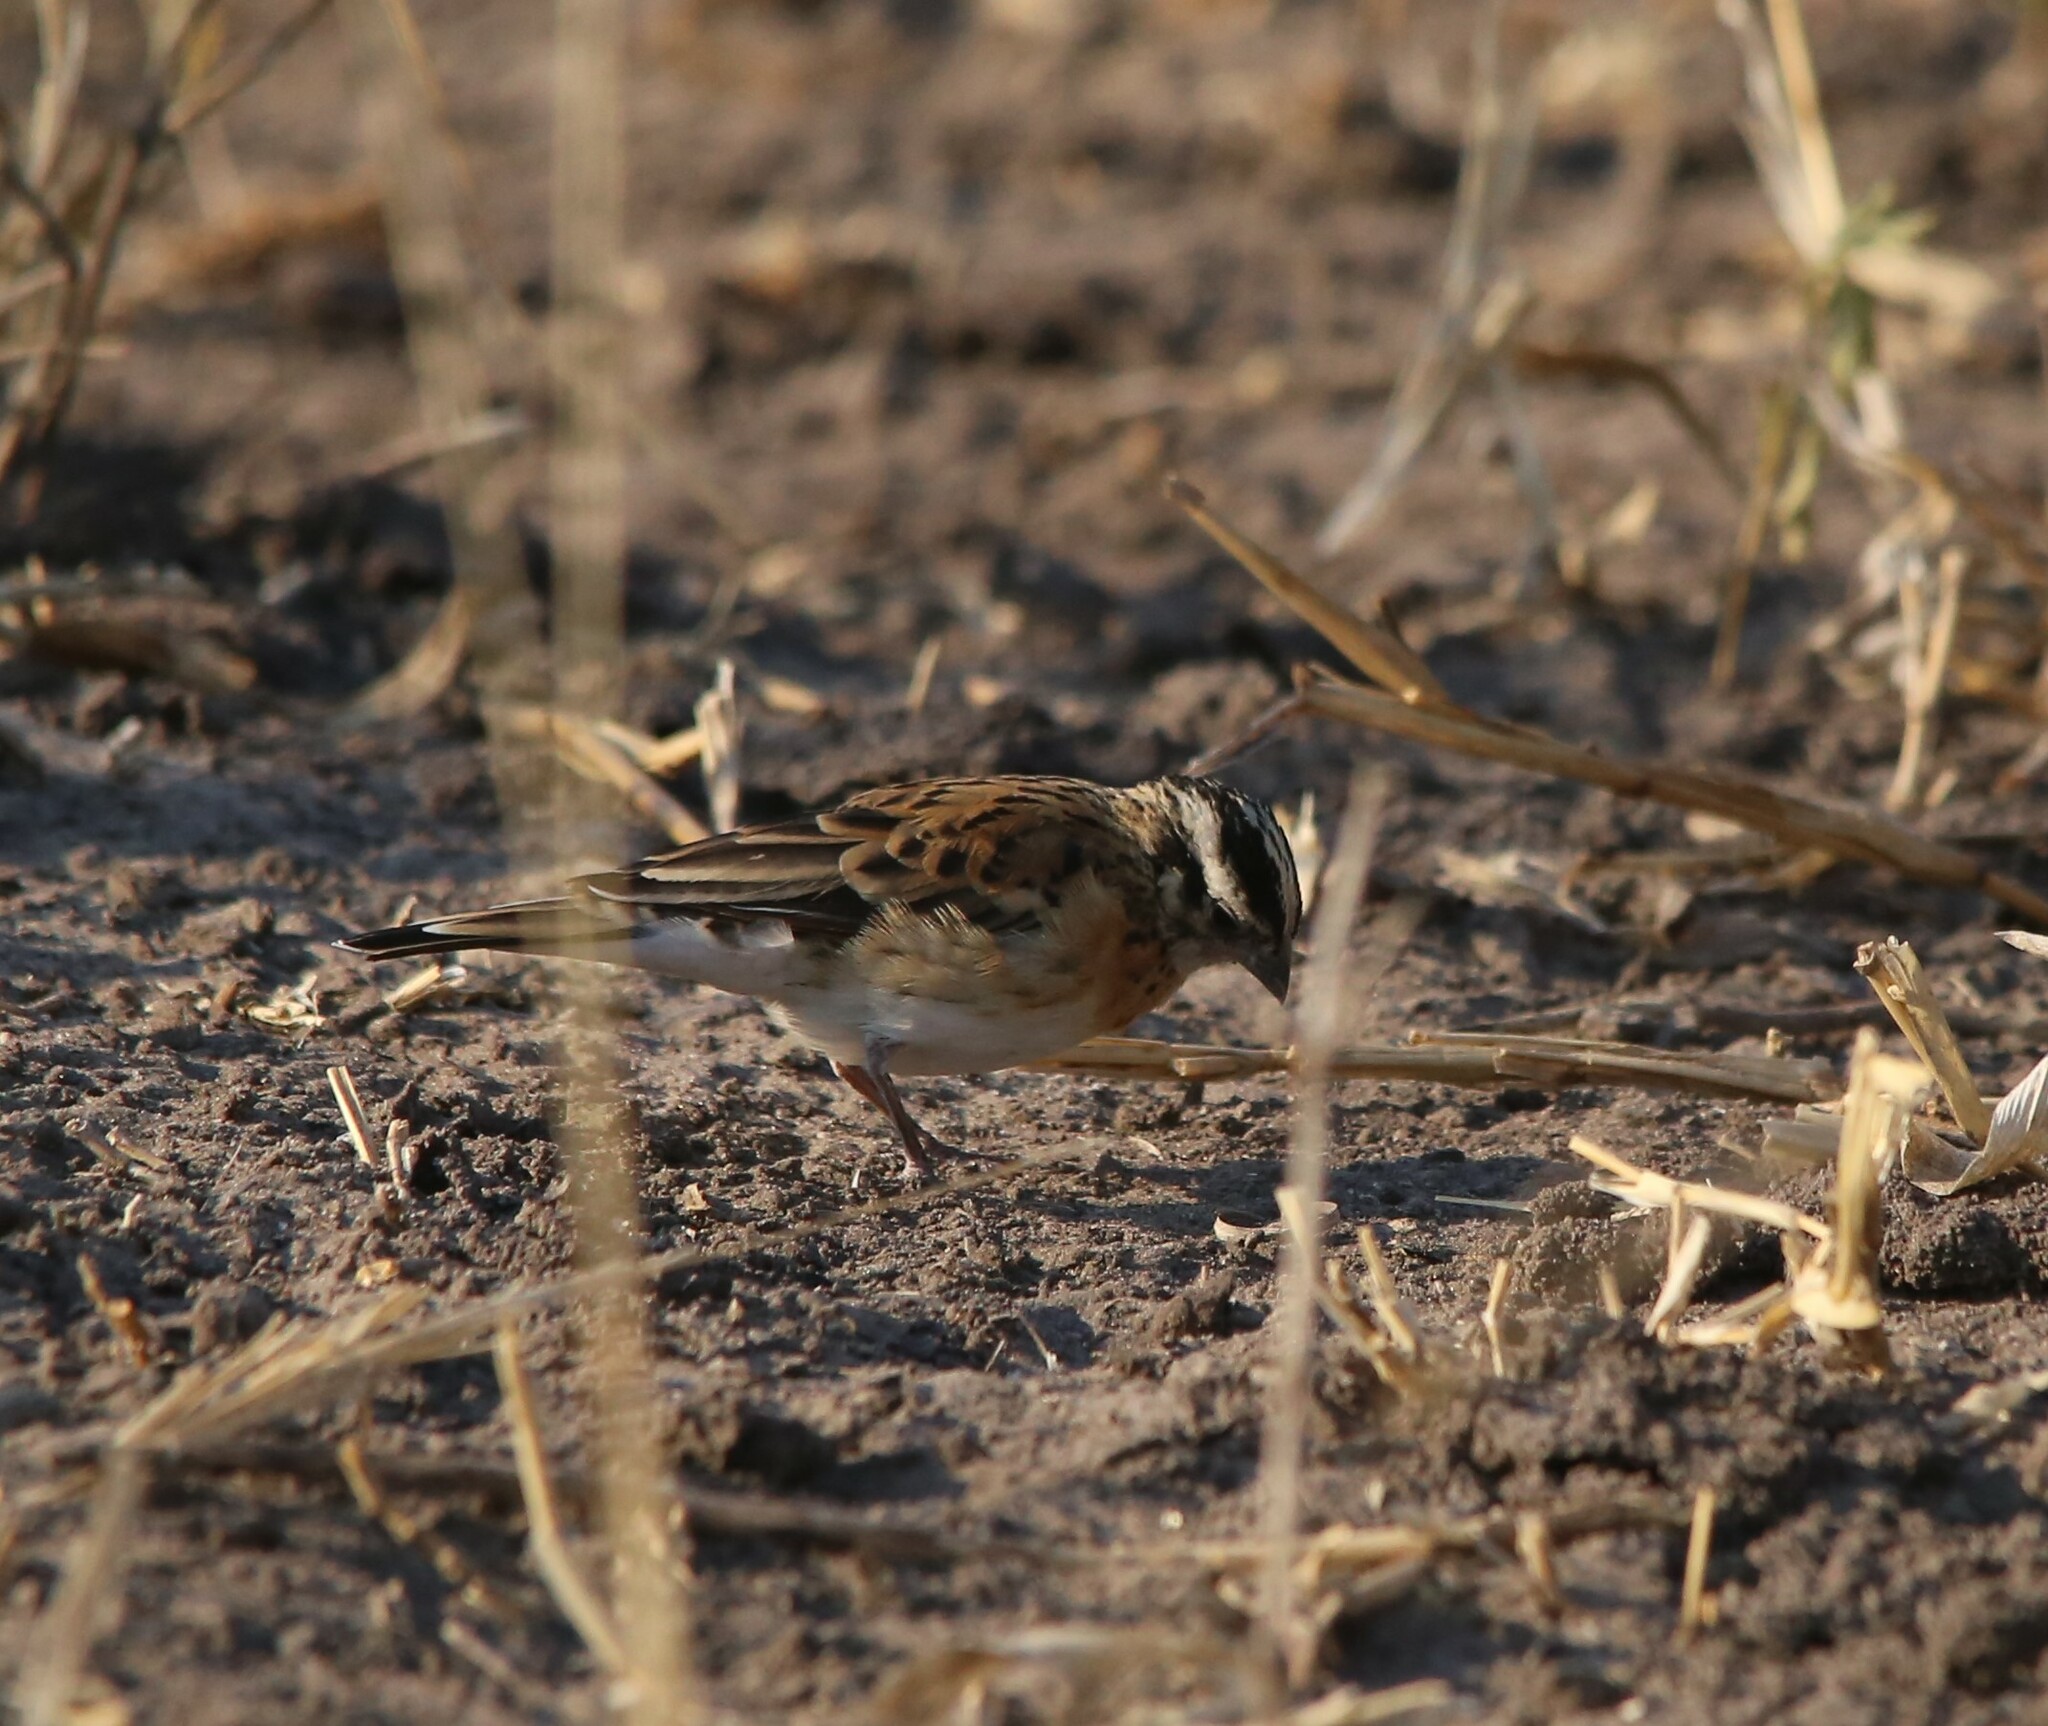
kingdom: Animalia
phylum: Chordata
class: Aves
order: Passeriformes
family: Viduidae
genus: Vidua
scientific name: Vidua paradisaea
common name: Long-tailed paradise whydah
